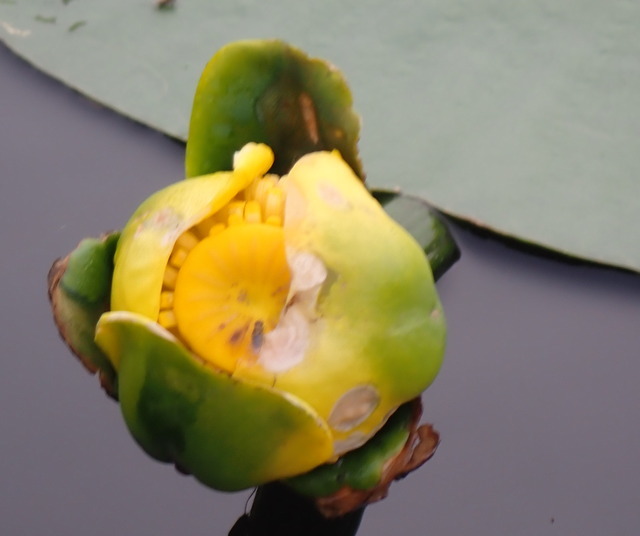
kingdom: Plantae
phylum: Tracheophyta
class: Magnoliopsida
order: Nymphaeales
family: Nymphaeaceae
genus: Nuphar
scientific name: Nuphar advena
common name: Spatter-dock
